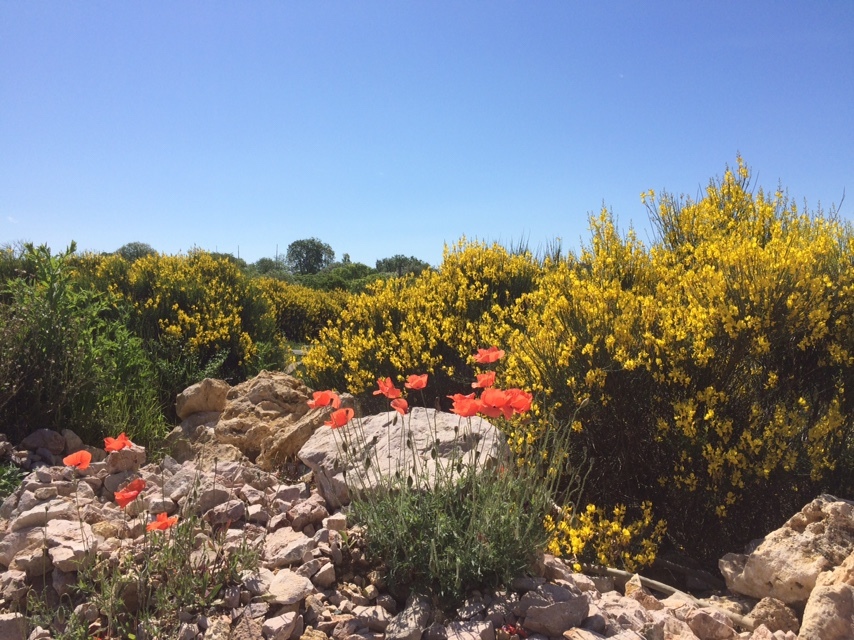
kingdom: Plantae
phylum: Tracheophyta
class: Magnoliopsida
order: Ranunculales
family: Papaveraceae
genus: Papaver
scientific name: Papaver rhoeas
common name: Corn poppy
